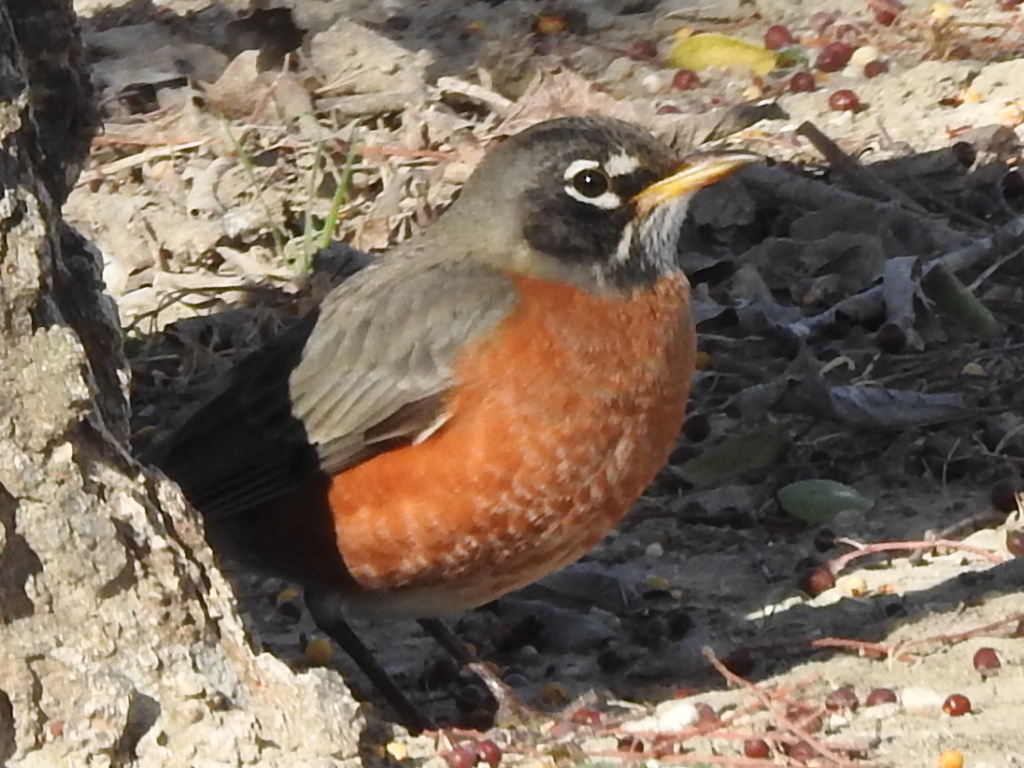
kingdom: Animalia
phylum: Chordata
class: Aves
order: Passeriformes
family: Turdidae
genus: Turdus
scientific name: Turdus migratorius
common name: American robin
